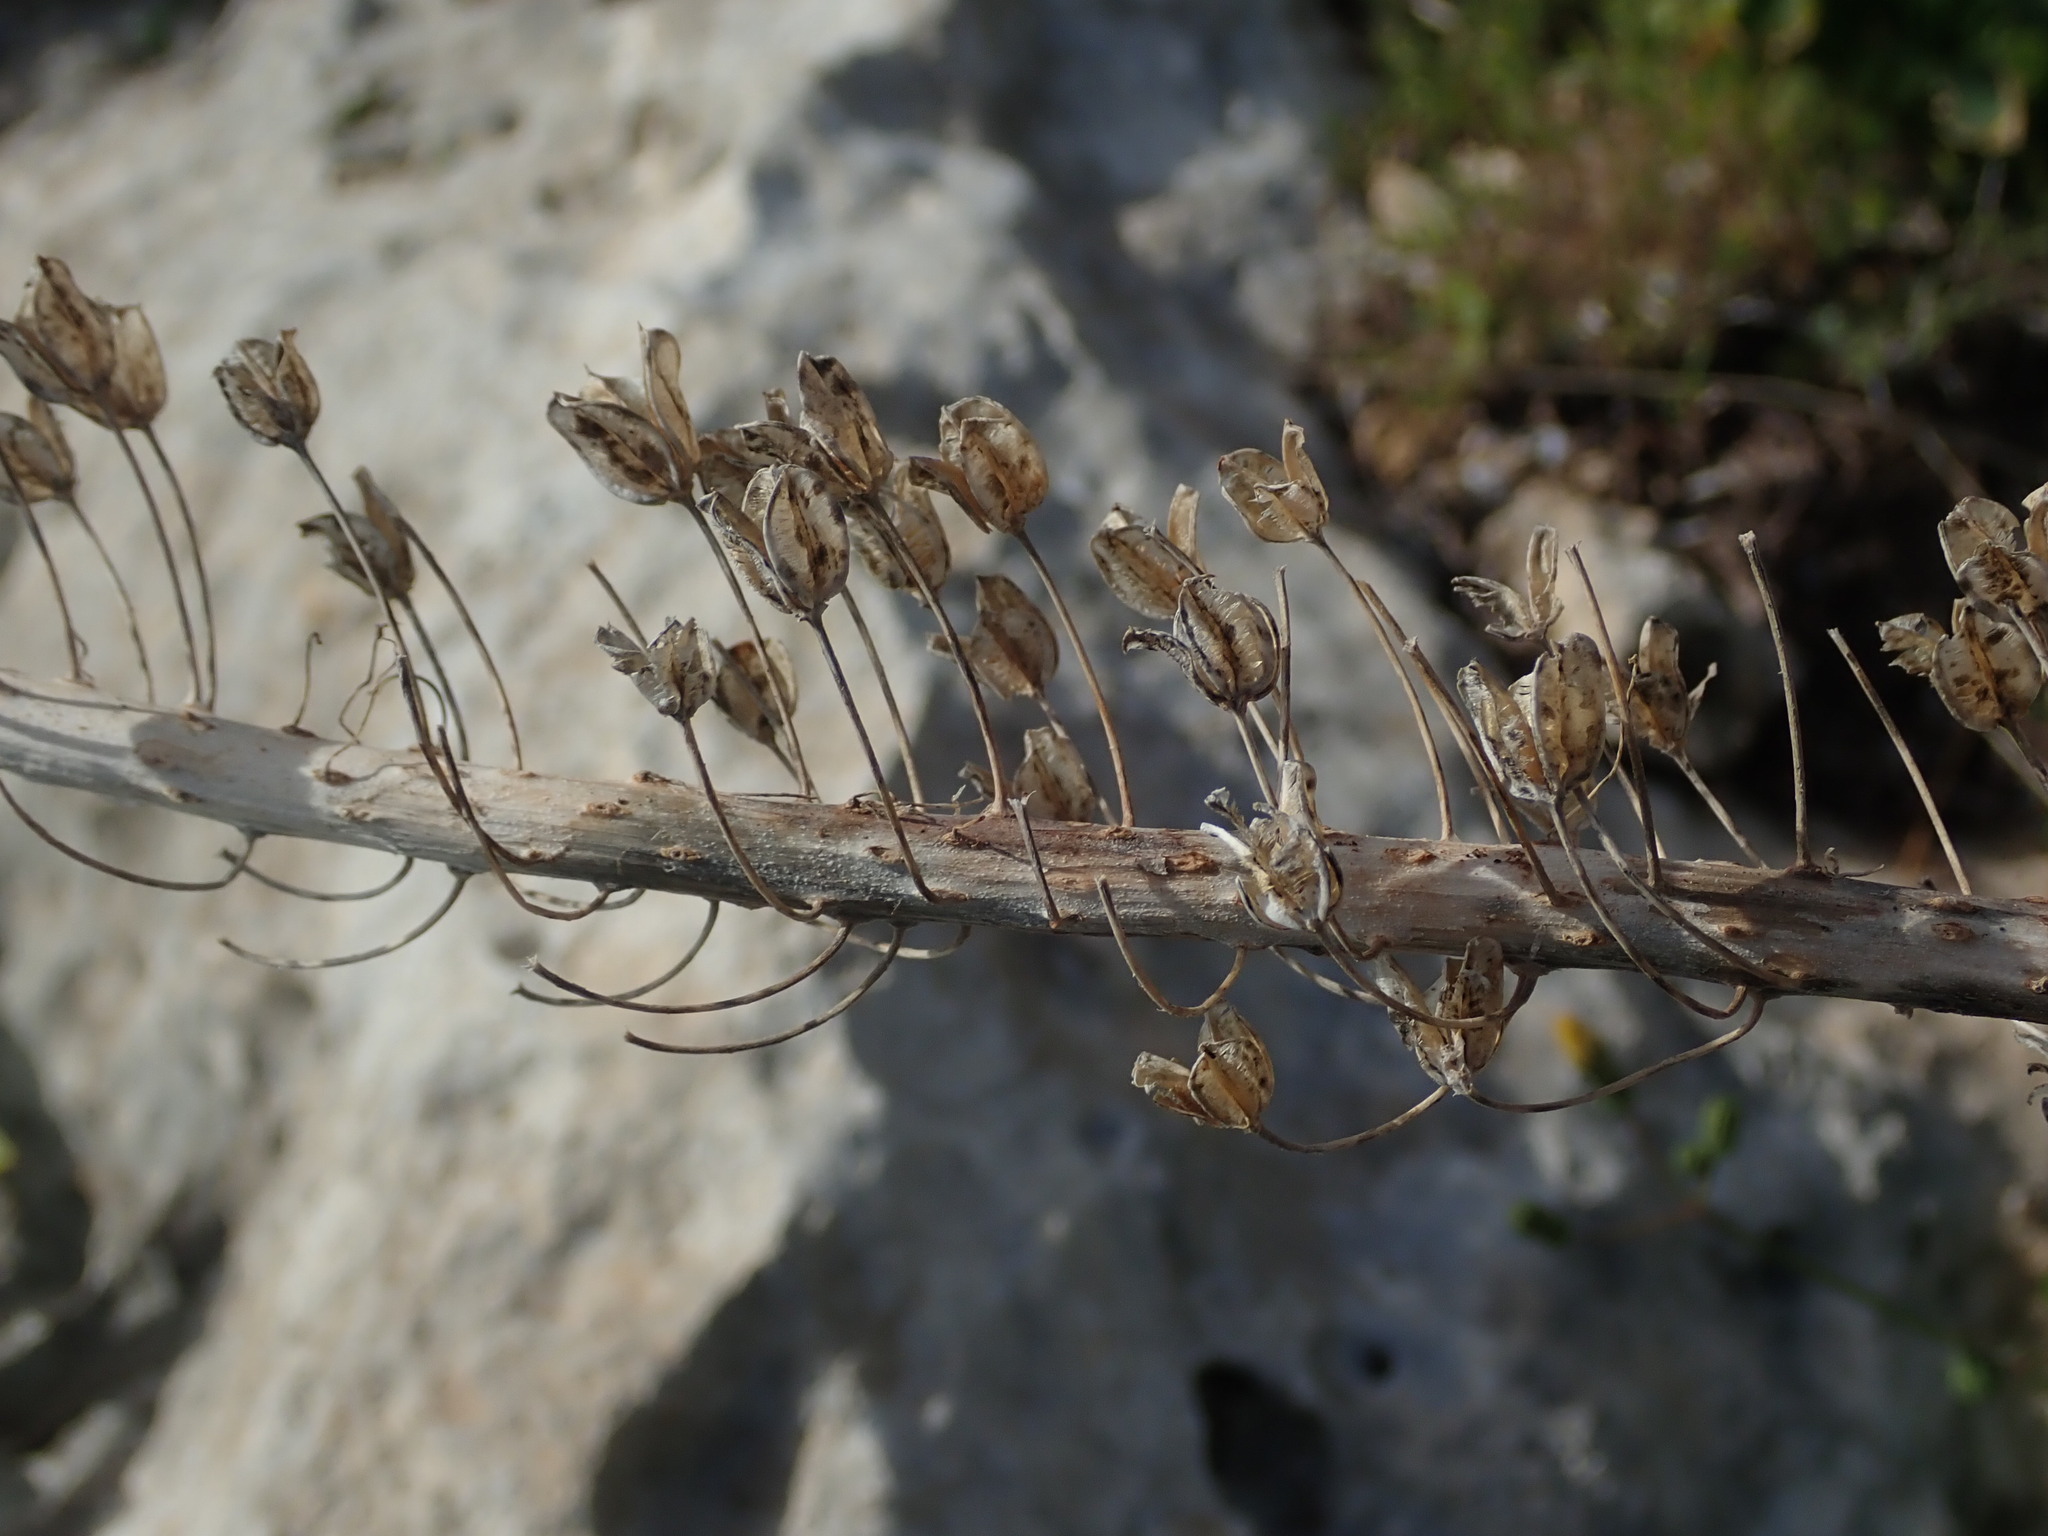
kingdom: Plantae
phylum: Tracheophyta
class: Liliopsida
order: Asparagales
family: Asparagaceae
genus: Drimia
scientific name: Drimia pancration
